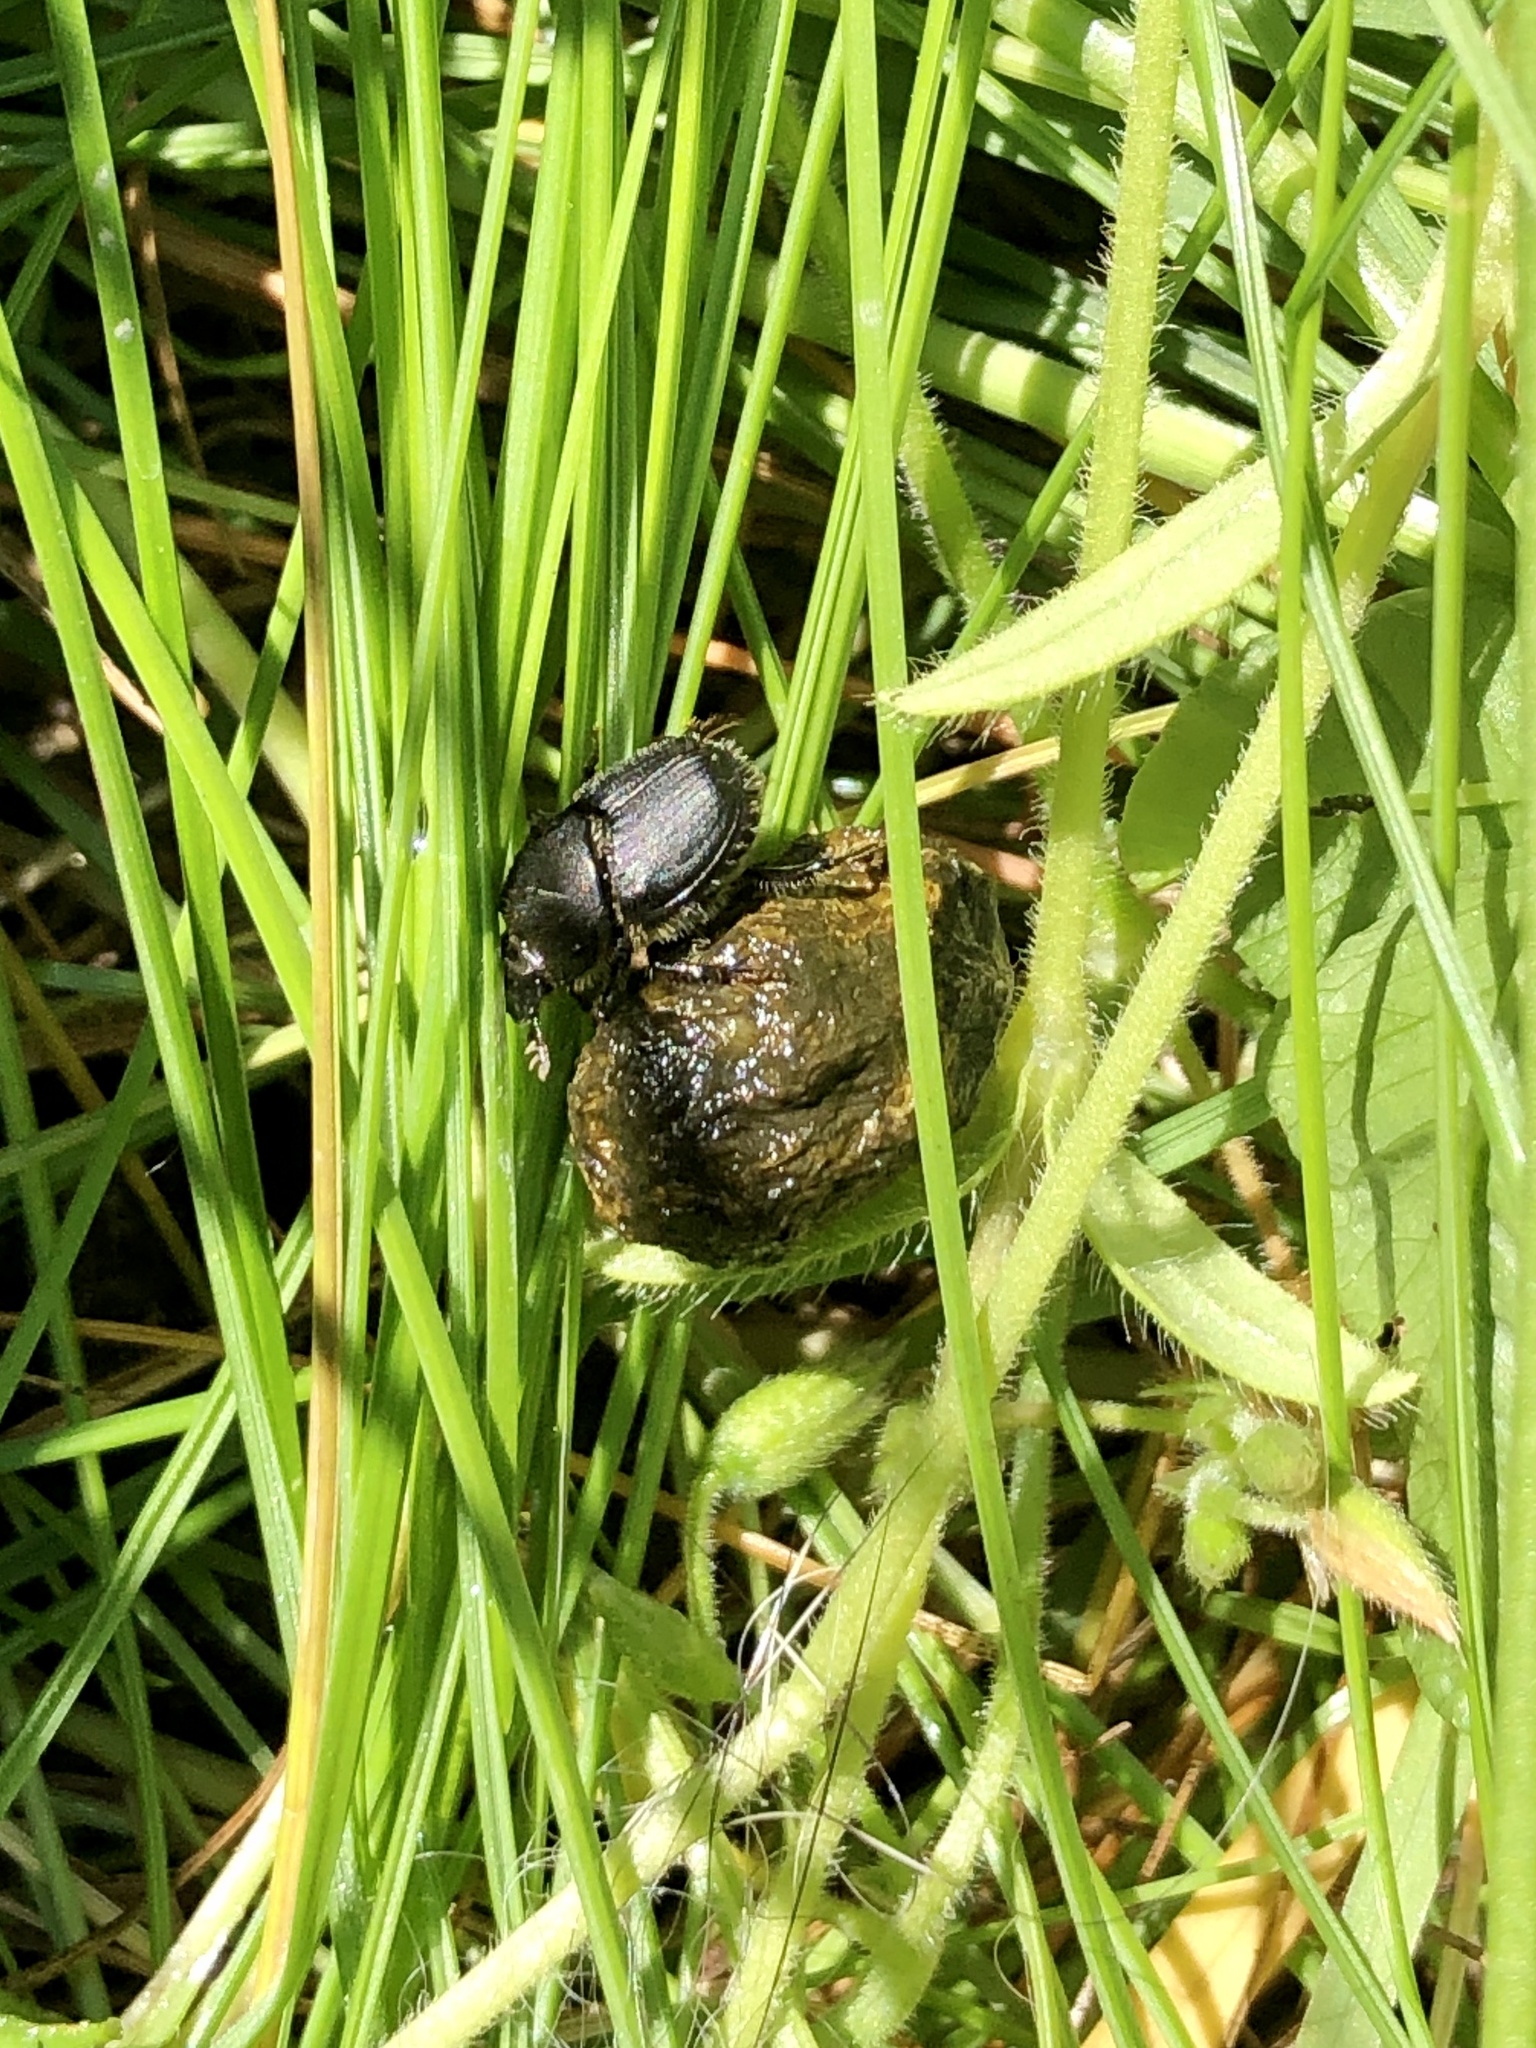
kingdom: Animalia
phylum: Arthropoda
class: Insecta
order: Coleoptera
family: Scarabaeidae
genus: Onthophagus
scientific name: Onthophagus hecate
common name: Scooped scarab
